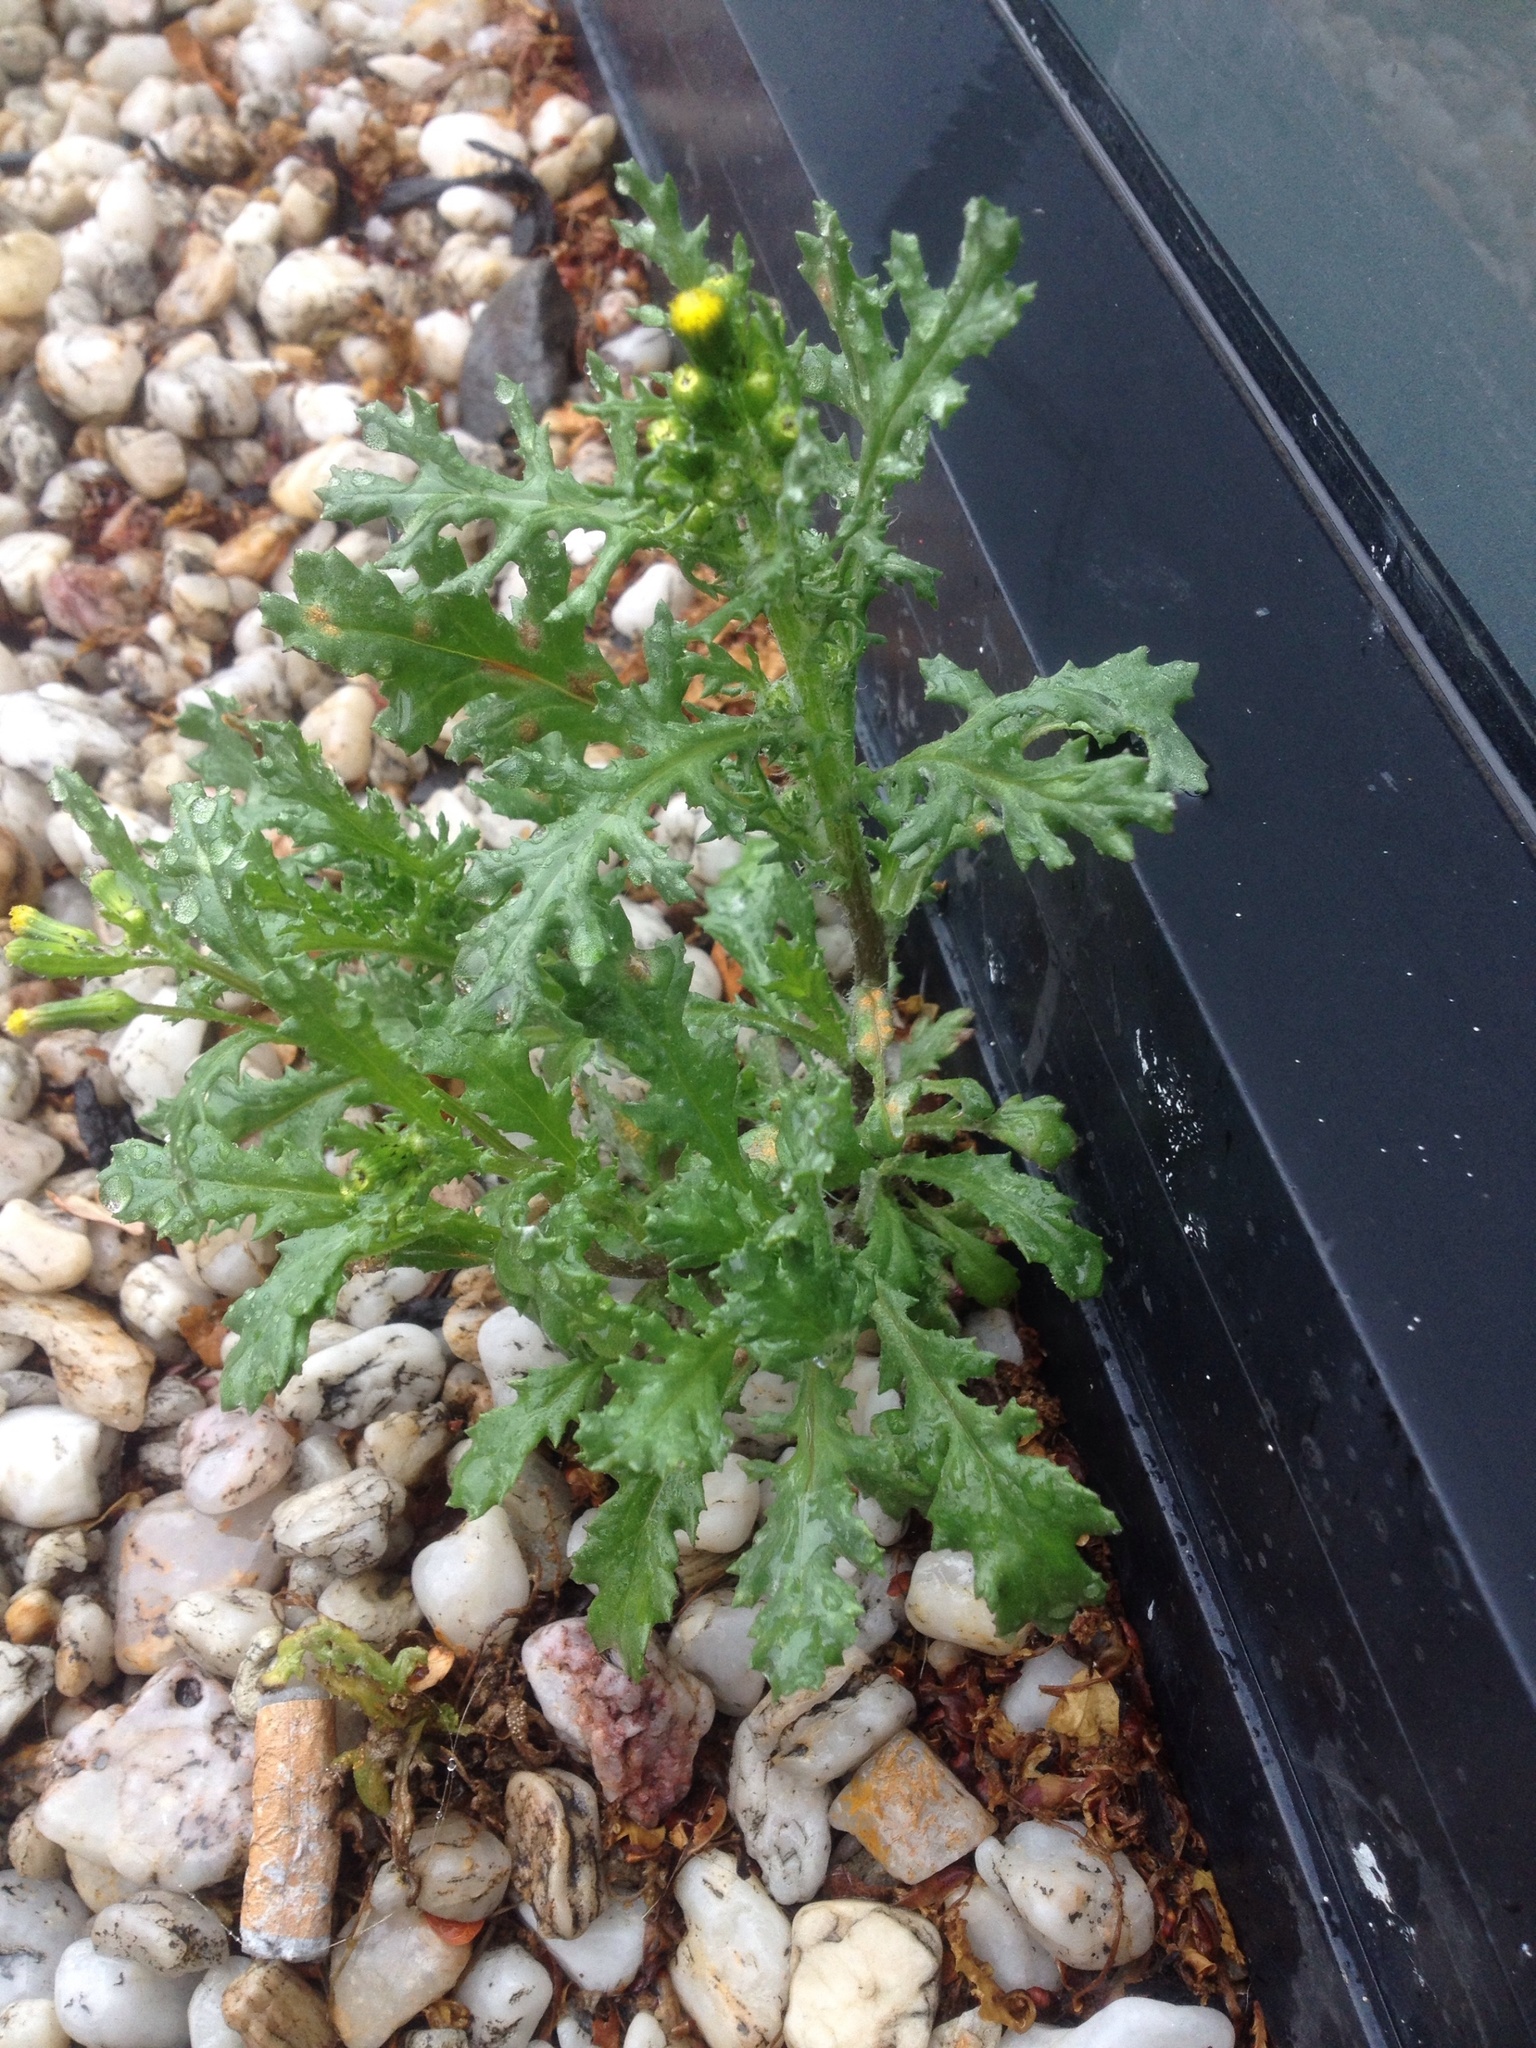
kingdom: Plantae
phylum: Tracheophyta
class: Magnoliopsida
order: Asterales
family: Asteraceae
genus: Senecio
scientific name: Senecio vulgaris
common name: Old-man-in-the-spring
